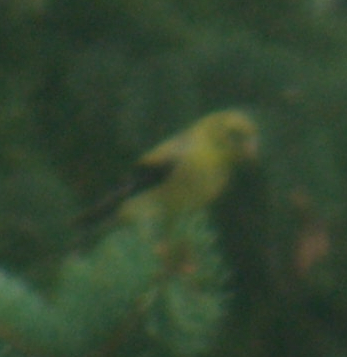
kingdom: Animalia
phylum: Chordata
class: Aves
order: Passeriformes
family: Fringillidae
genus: Spinus
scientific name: Spinus tristis
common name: American goldfinch
